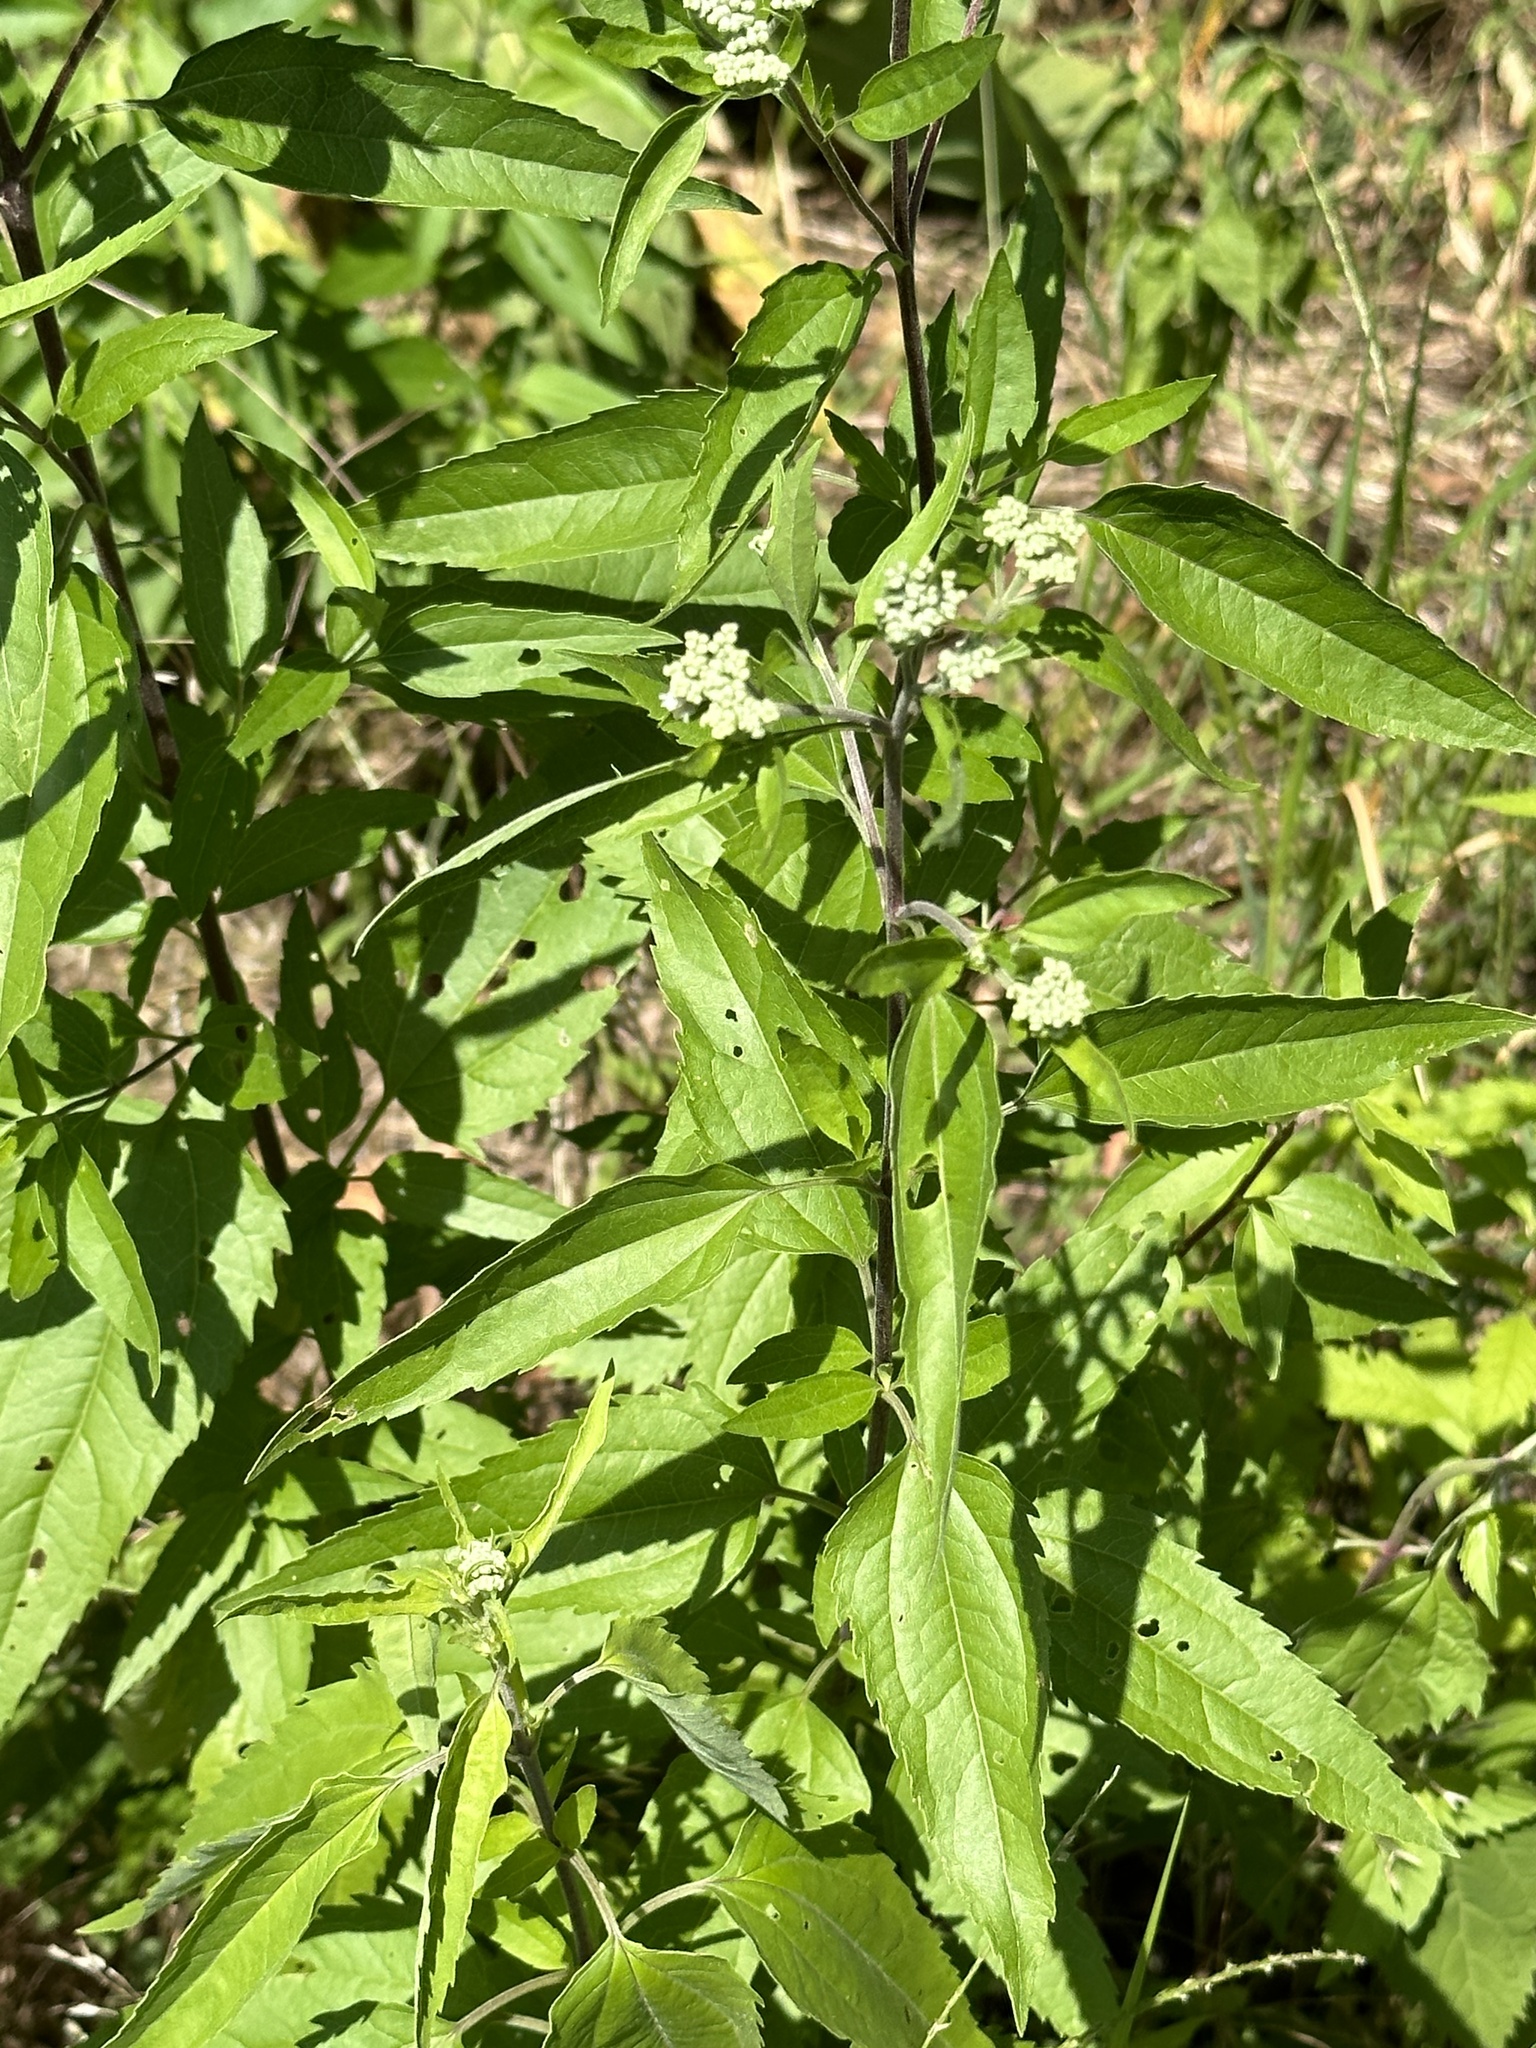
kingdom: Plantae
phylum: Tracheophyta
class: Magnoliopsida
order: Asterales
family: Asteraceae
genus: Eupatorium
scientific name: Eupatorium serotinum
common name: Late boneset
